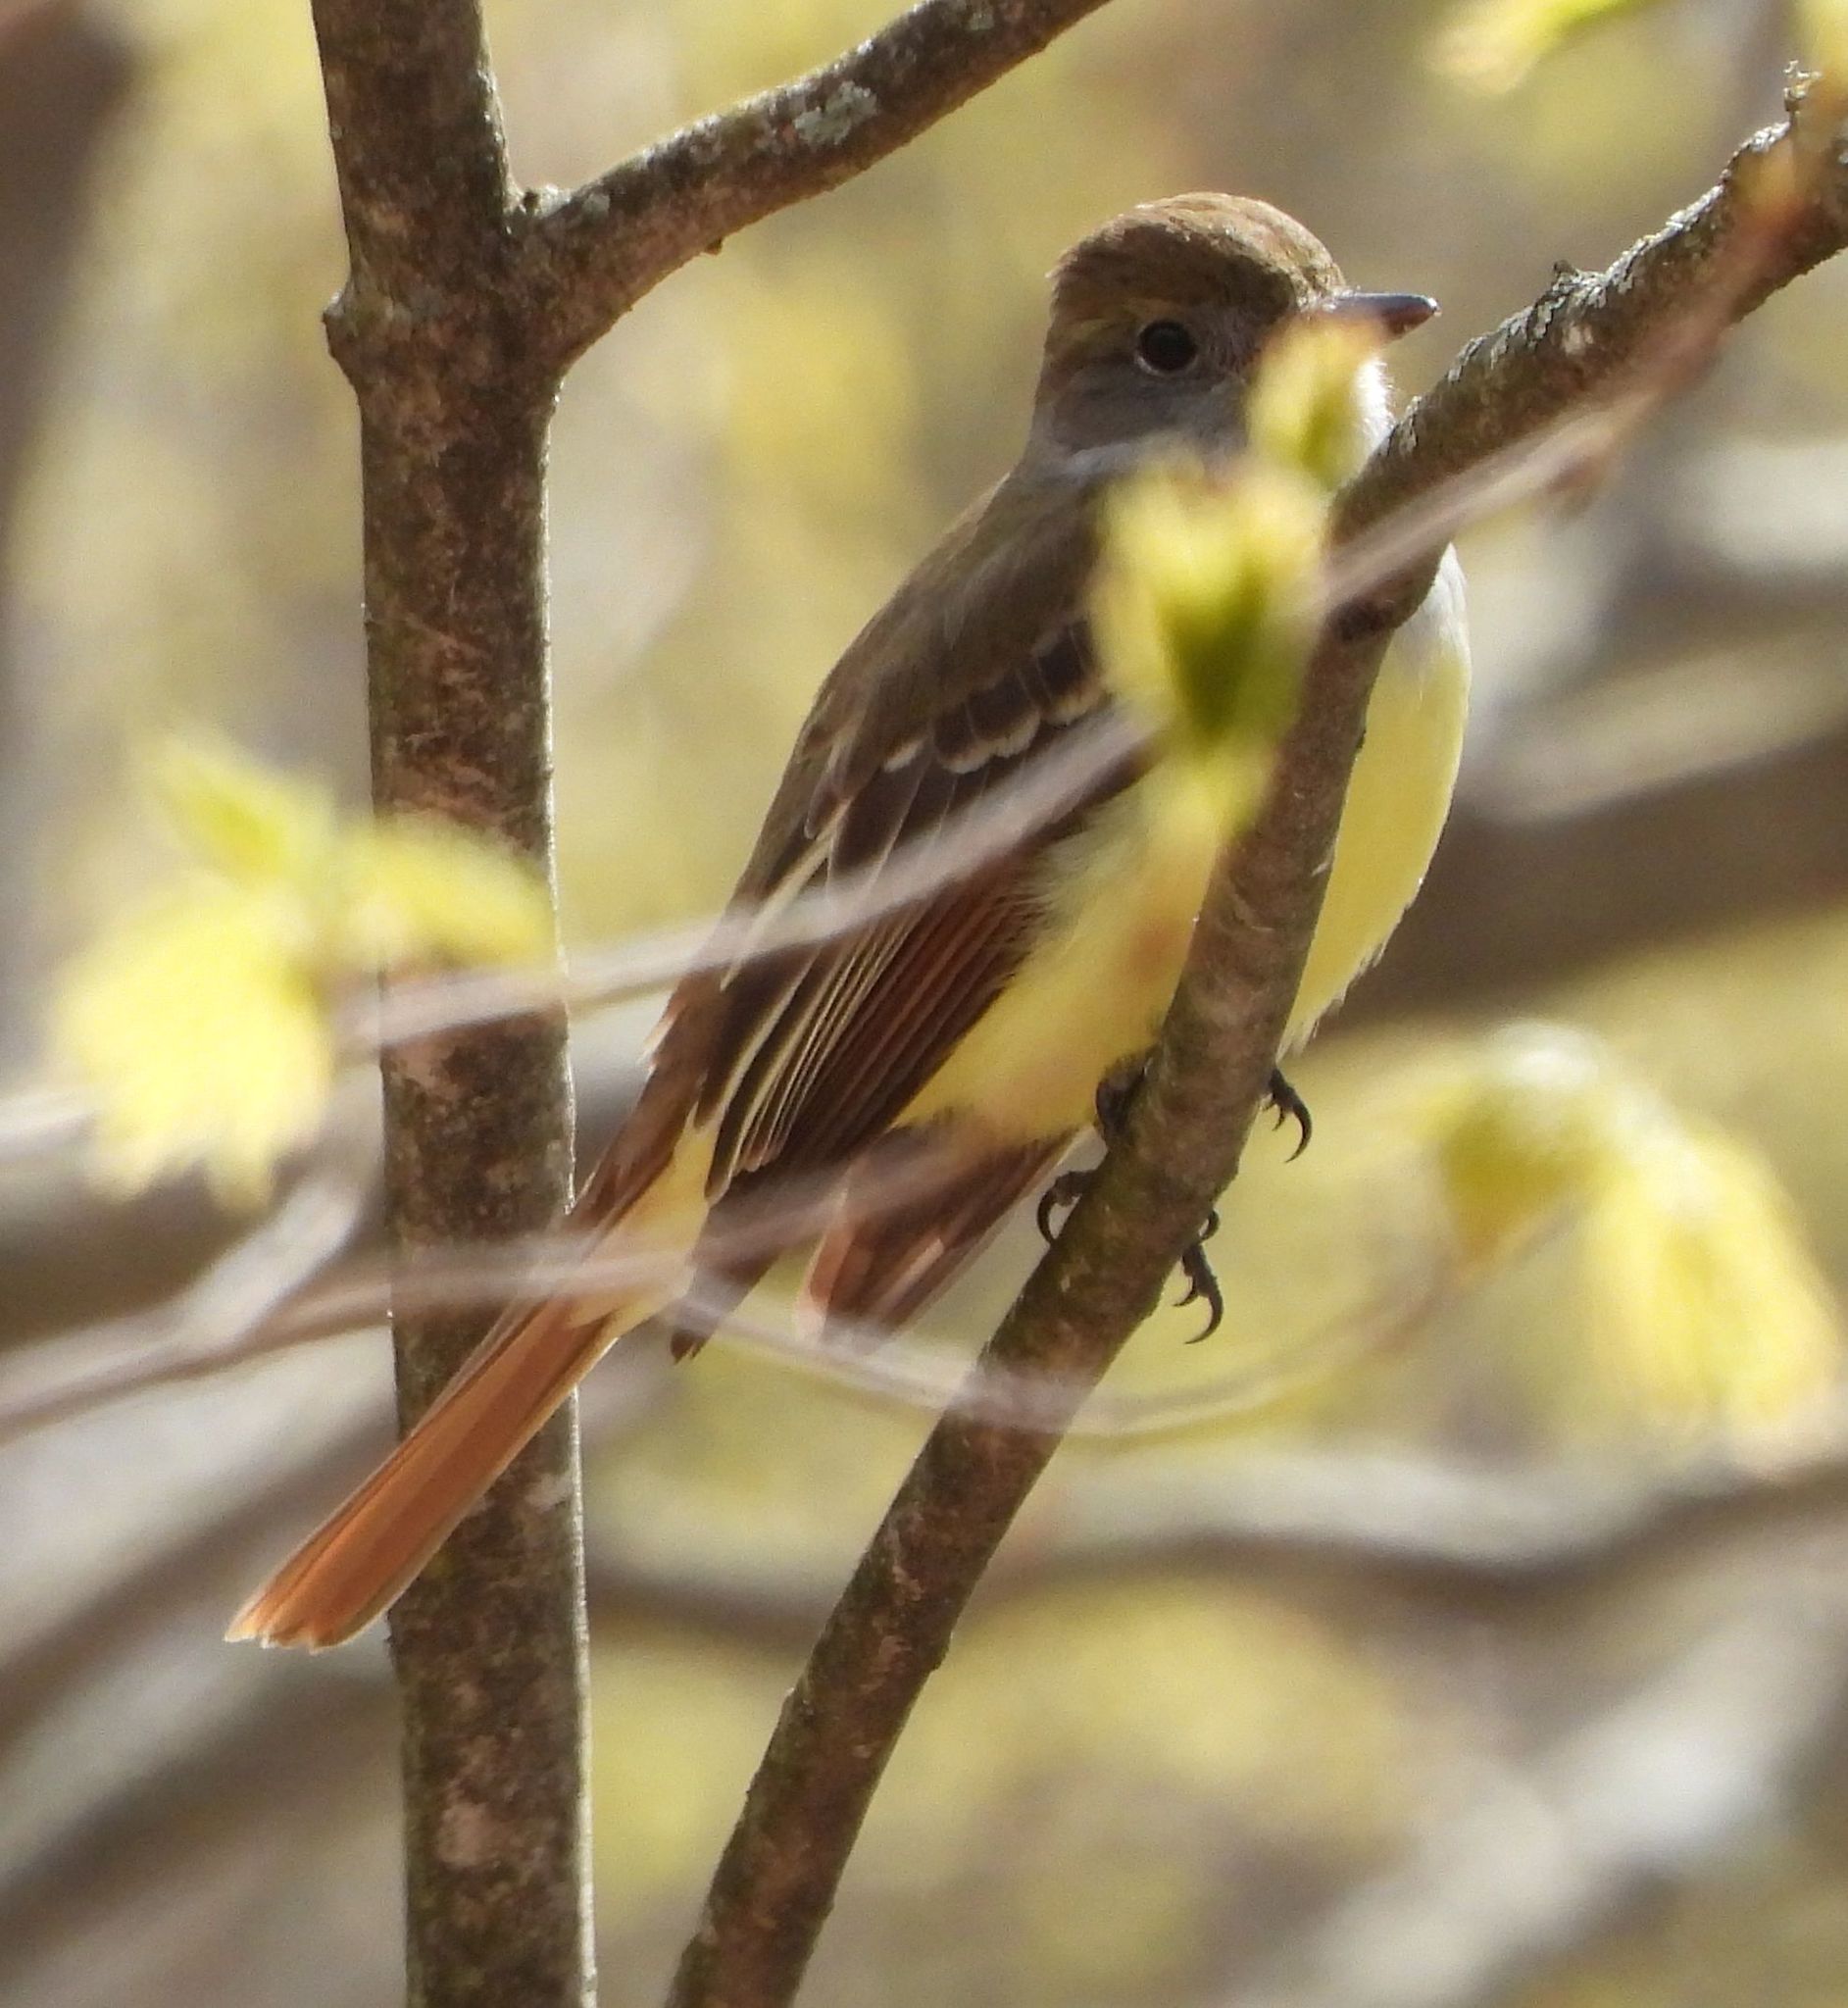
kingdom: Animalia
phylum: Chordata
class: Aves
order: Passeriformes
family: Tyrannidae
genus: Myiarchus
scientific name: Myiarchus crinitus
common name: Great crested flycatcher
